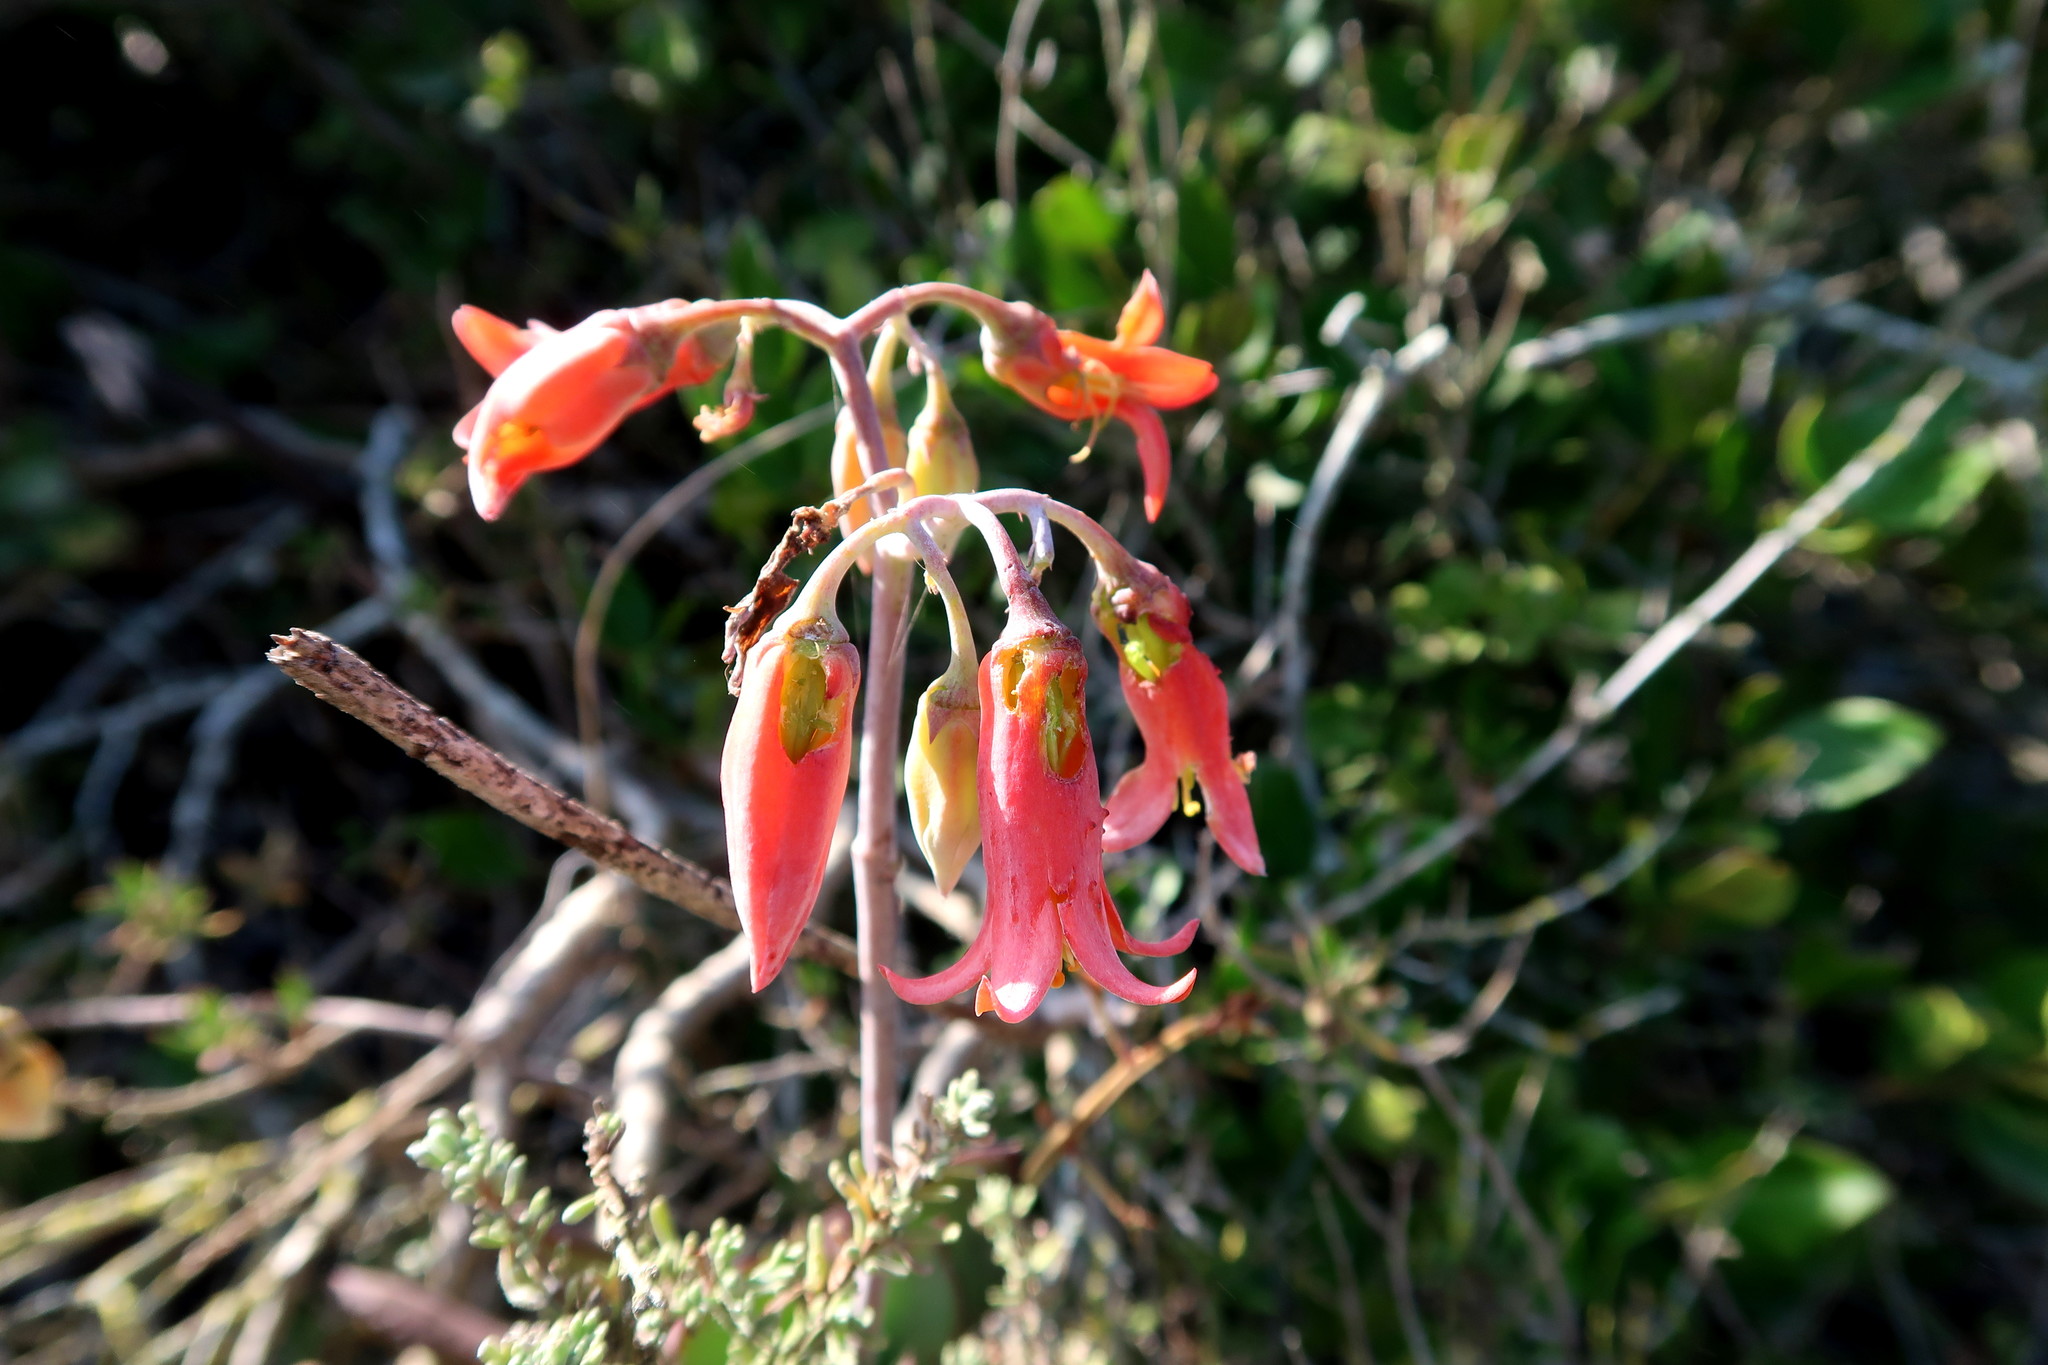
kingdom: Plantae
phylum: Tracheophyta
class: Magnoliopsida
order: Saxifragales
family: Crassulaceae
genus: Cotyledon
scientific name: Cotyledon orbiculata
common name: Pig's ear
